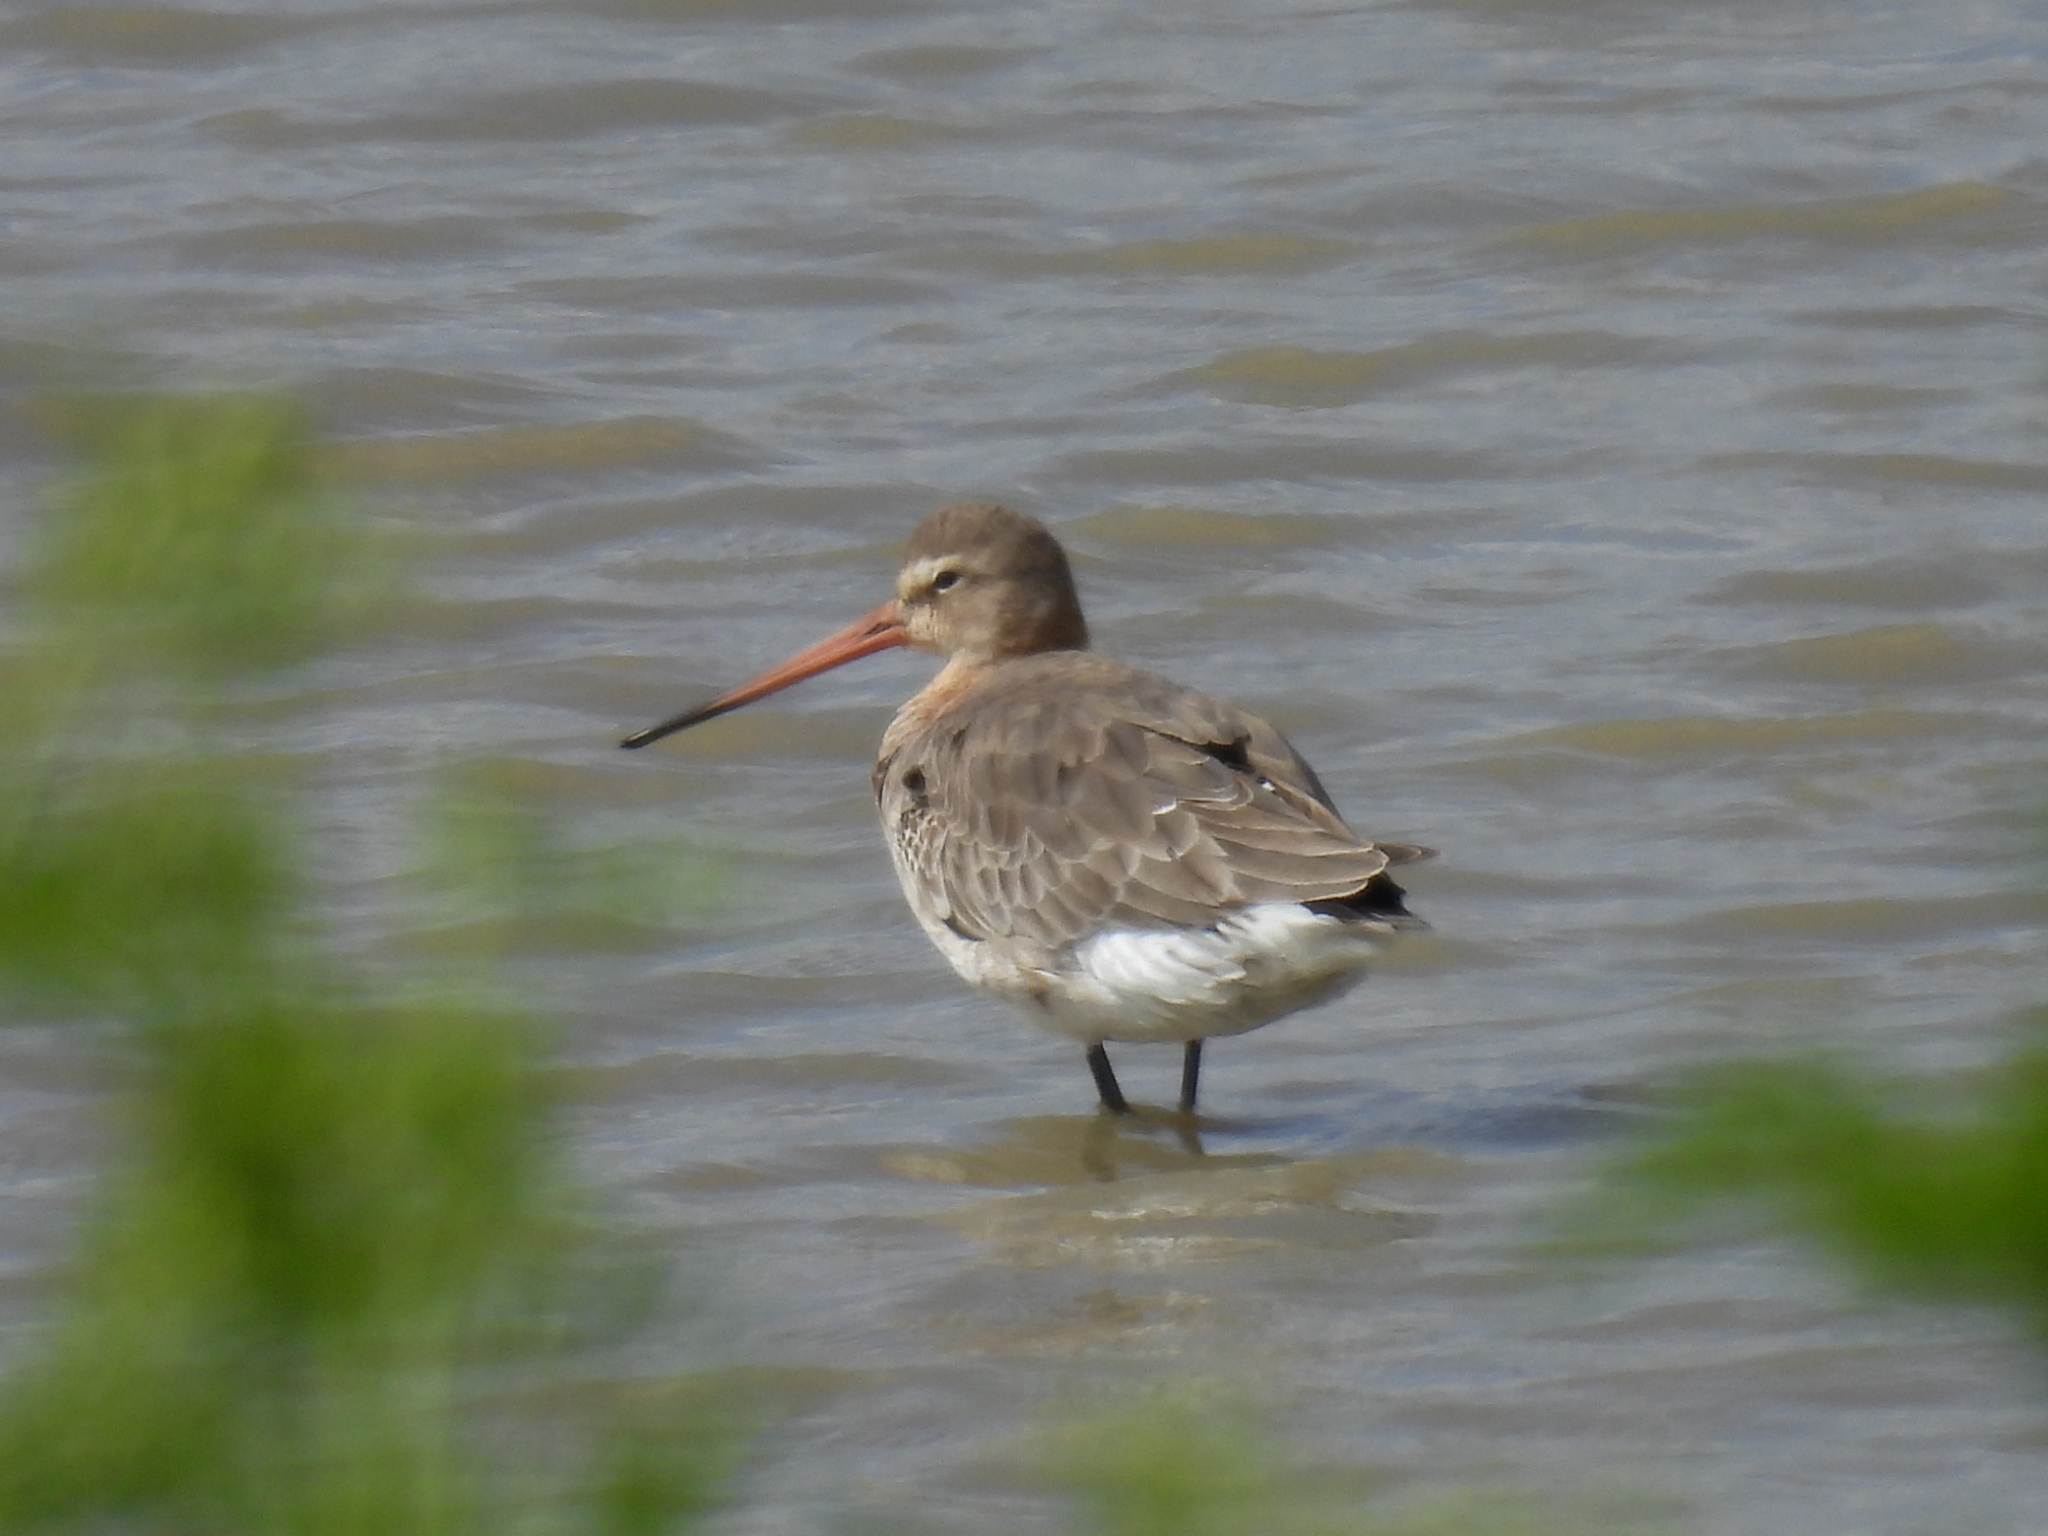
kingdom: Animalia
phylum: Chordata
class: Aves
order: Charadriiformes
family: Scolopacidae
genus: Limosa
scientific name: Limosa limosa
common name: Black-tailed godwit
